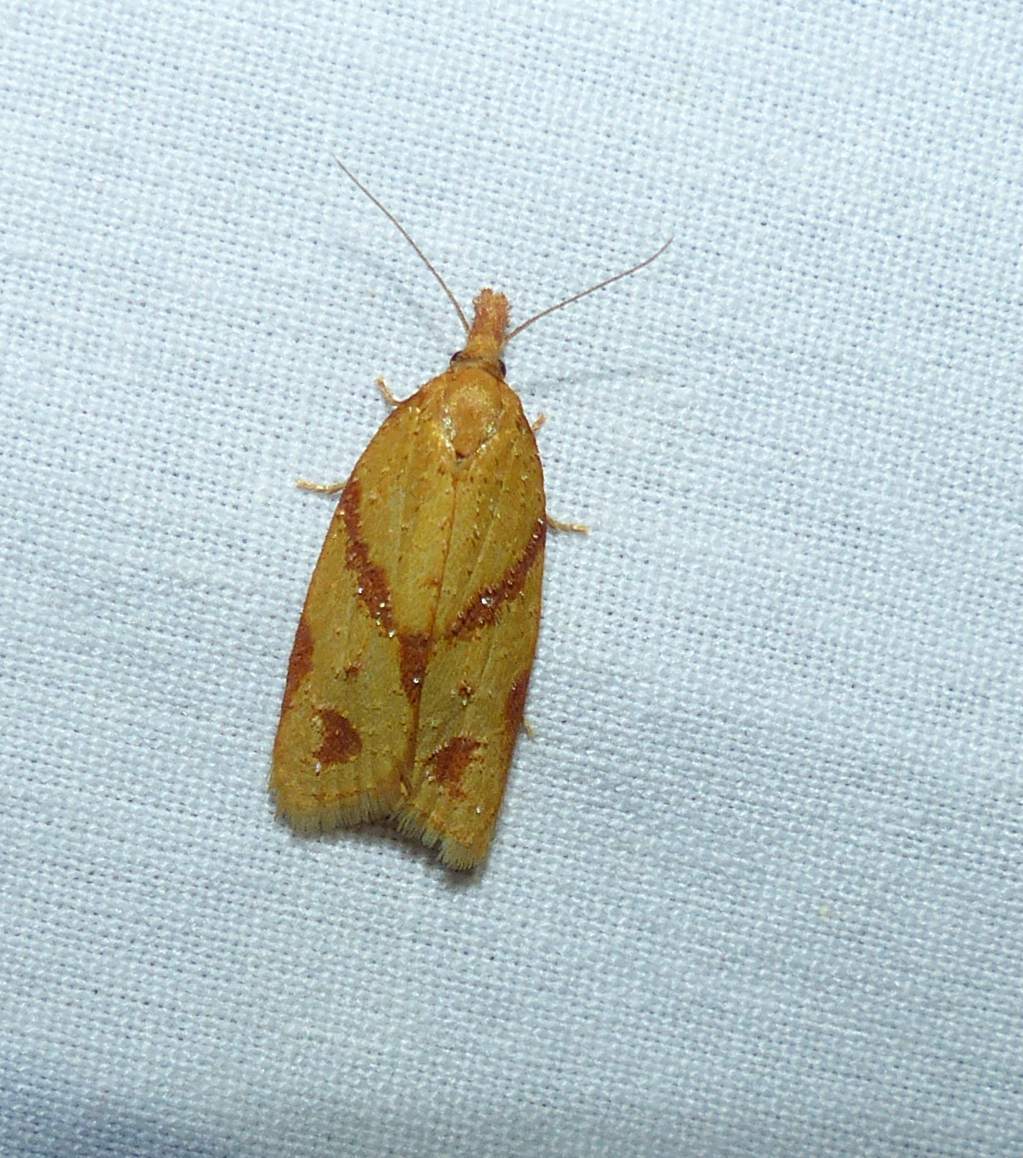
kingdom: Animalia
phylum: Arthropoda
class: Insecta
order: Lepidoptera
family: Tortricidae
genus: Sparganothis
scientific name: Sparganothis unifasciana
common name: One-lined sparganothis moth
